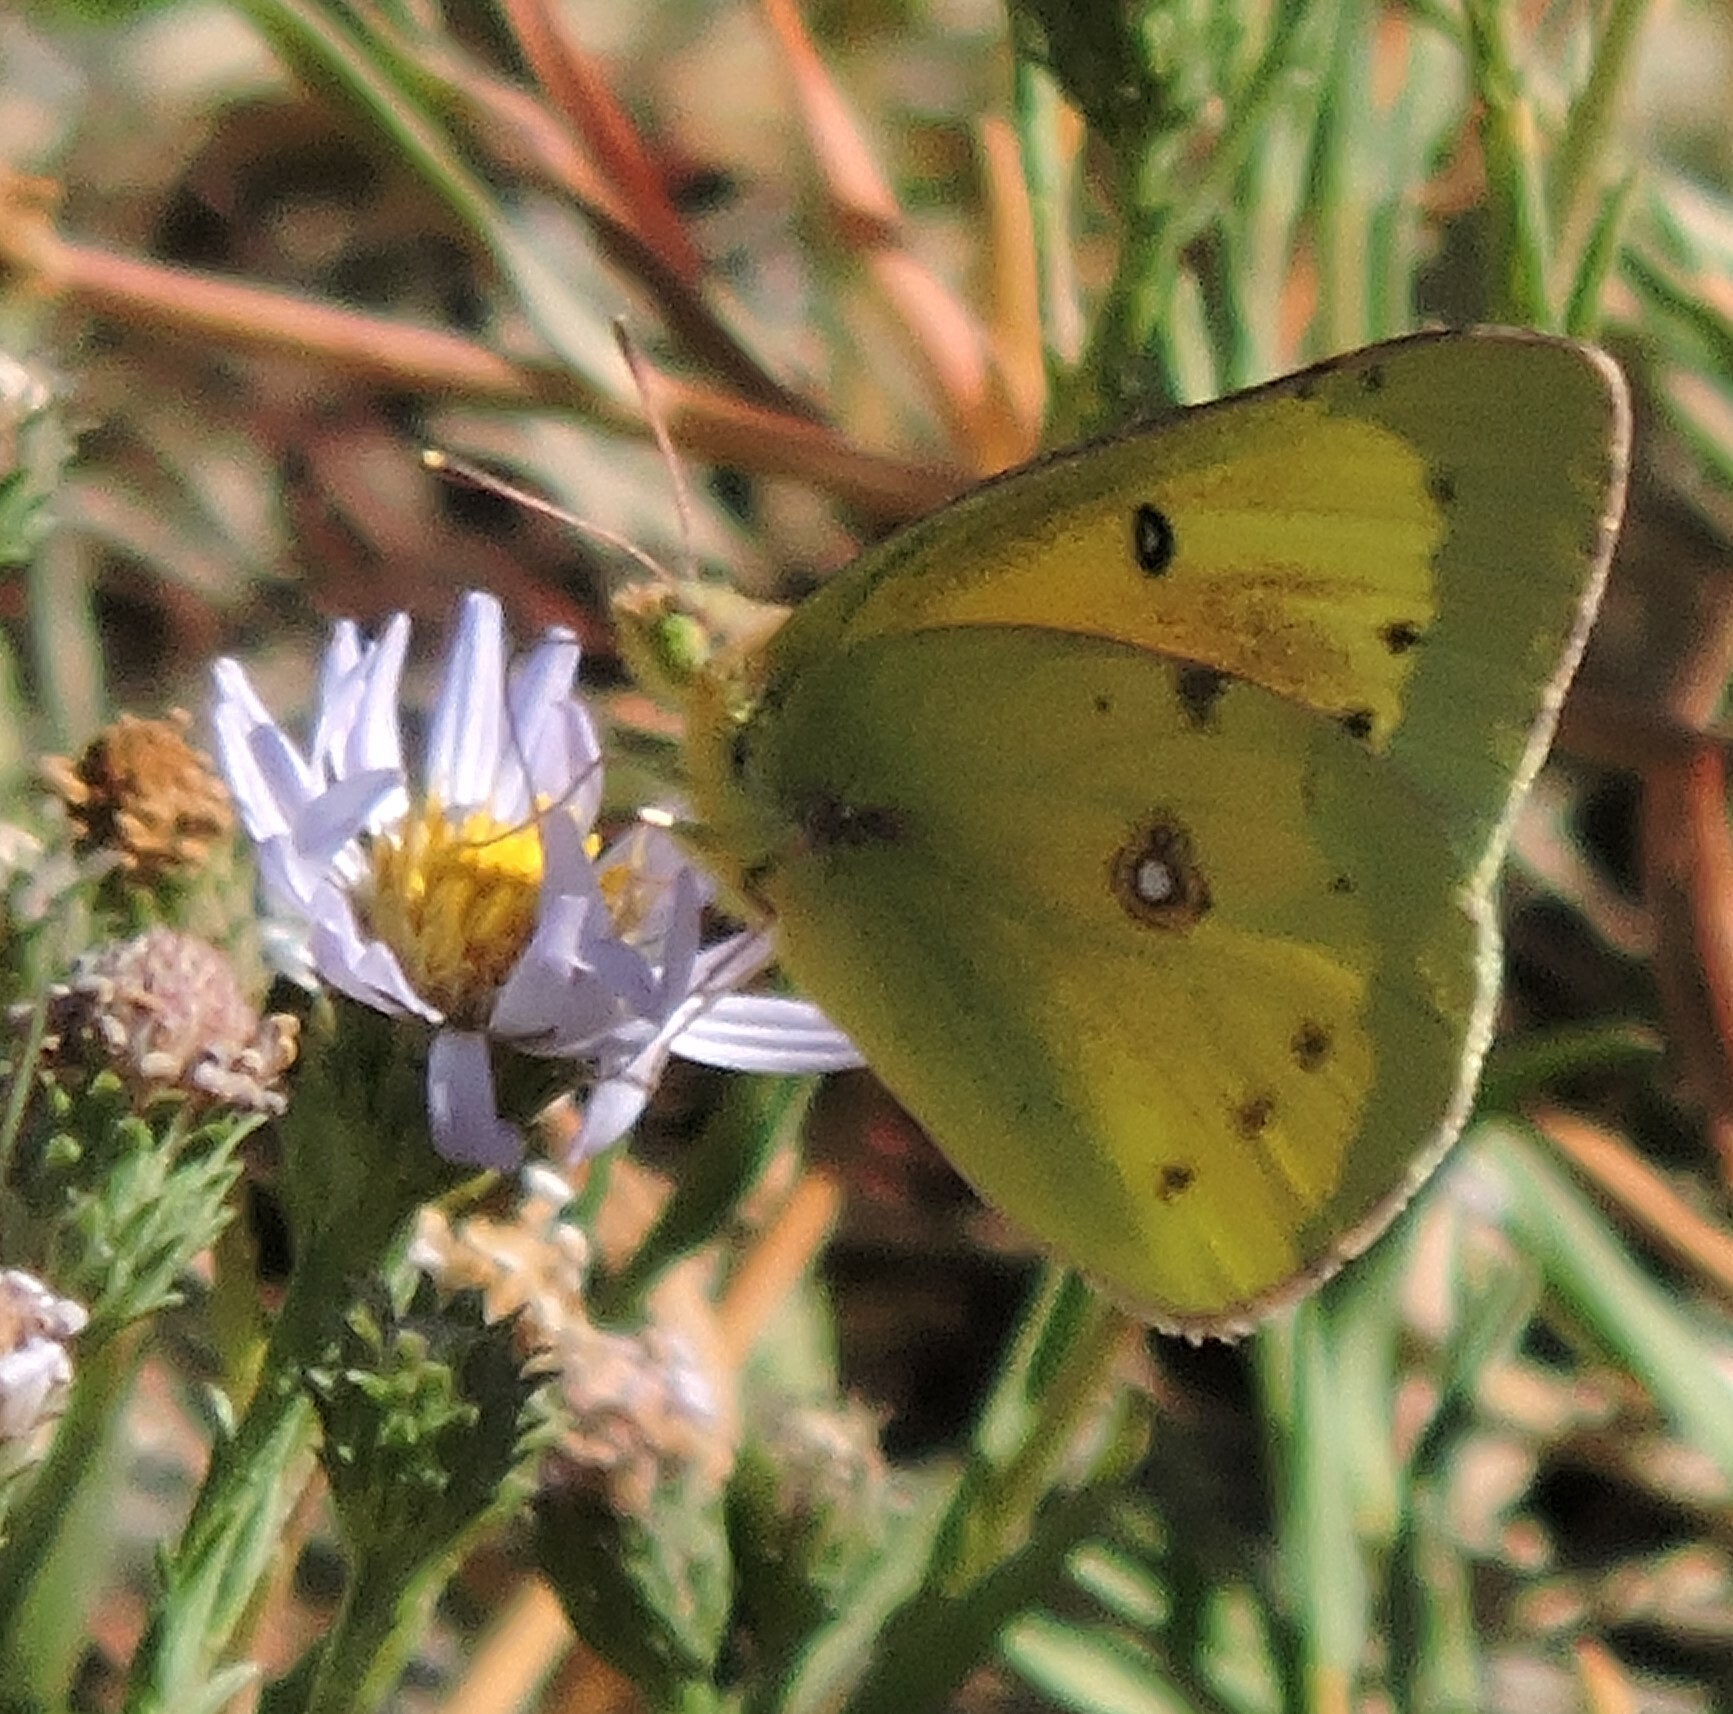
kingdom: Animalia
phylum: Arthropoda
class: Insecta
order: Lepidoptera
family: Pieridae
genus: Colias
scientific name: Colias eurytheme
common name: Alfalfa butterfly
